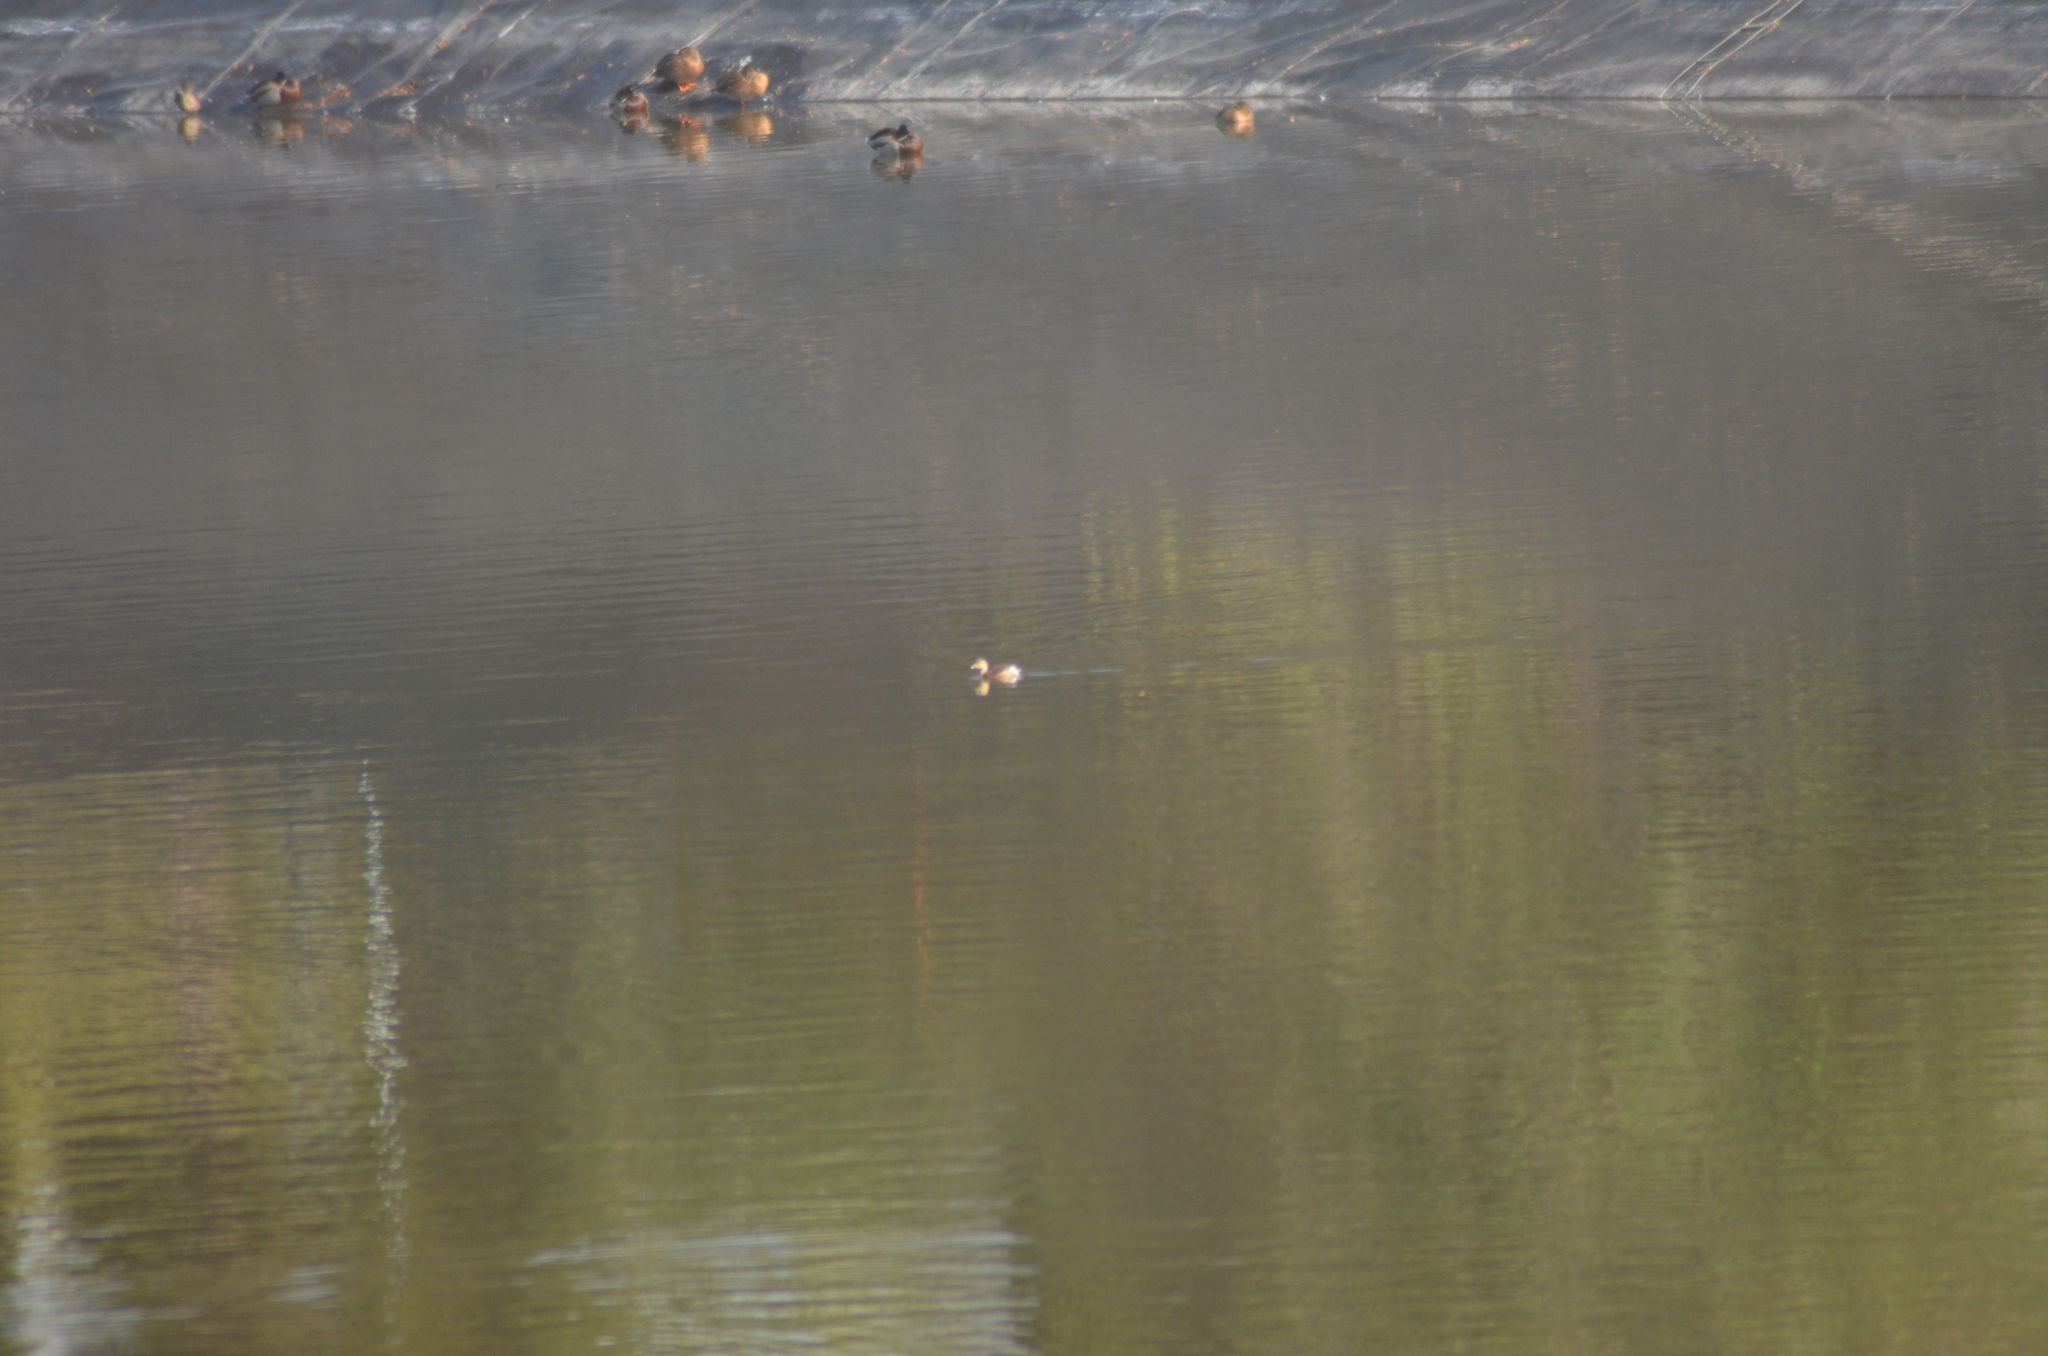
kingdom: Animalia
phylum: Chordata
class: Aves
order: Podicipediformes
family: Podicipedidae
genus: Tachybaptus
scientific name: Tachybaptus ruficollis
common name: Little grebe
